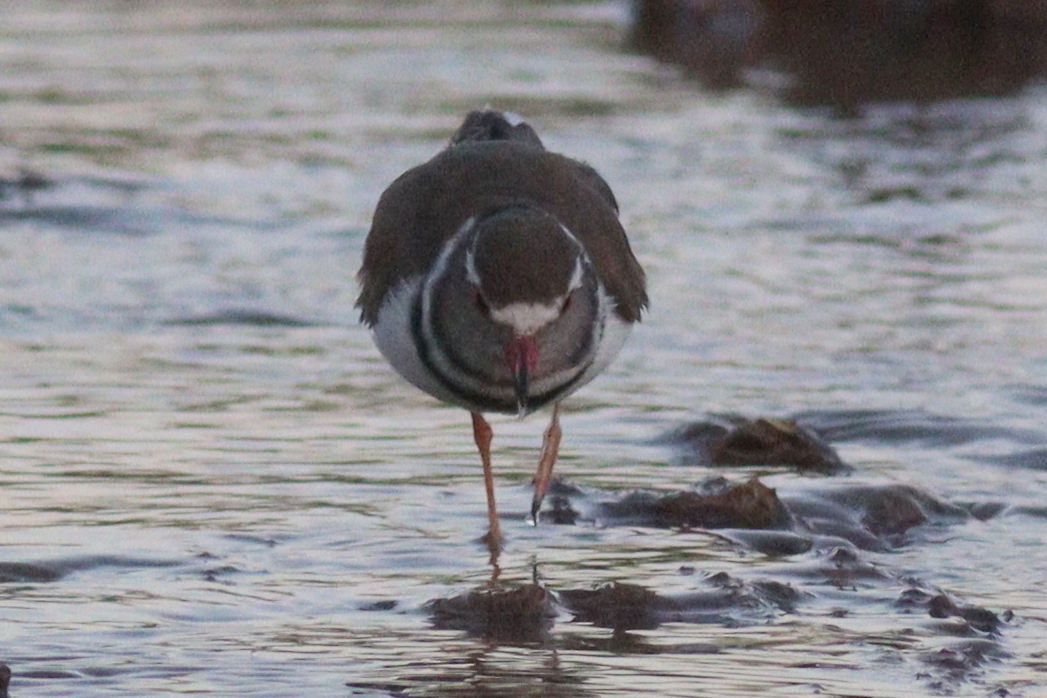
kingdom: Animalia
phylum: Chordata
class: Aves
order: Charadriiformes
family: Charadriidae
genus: Charadrius
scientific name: Charadrius tricollaris
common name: Three-banded plover
